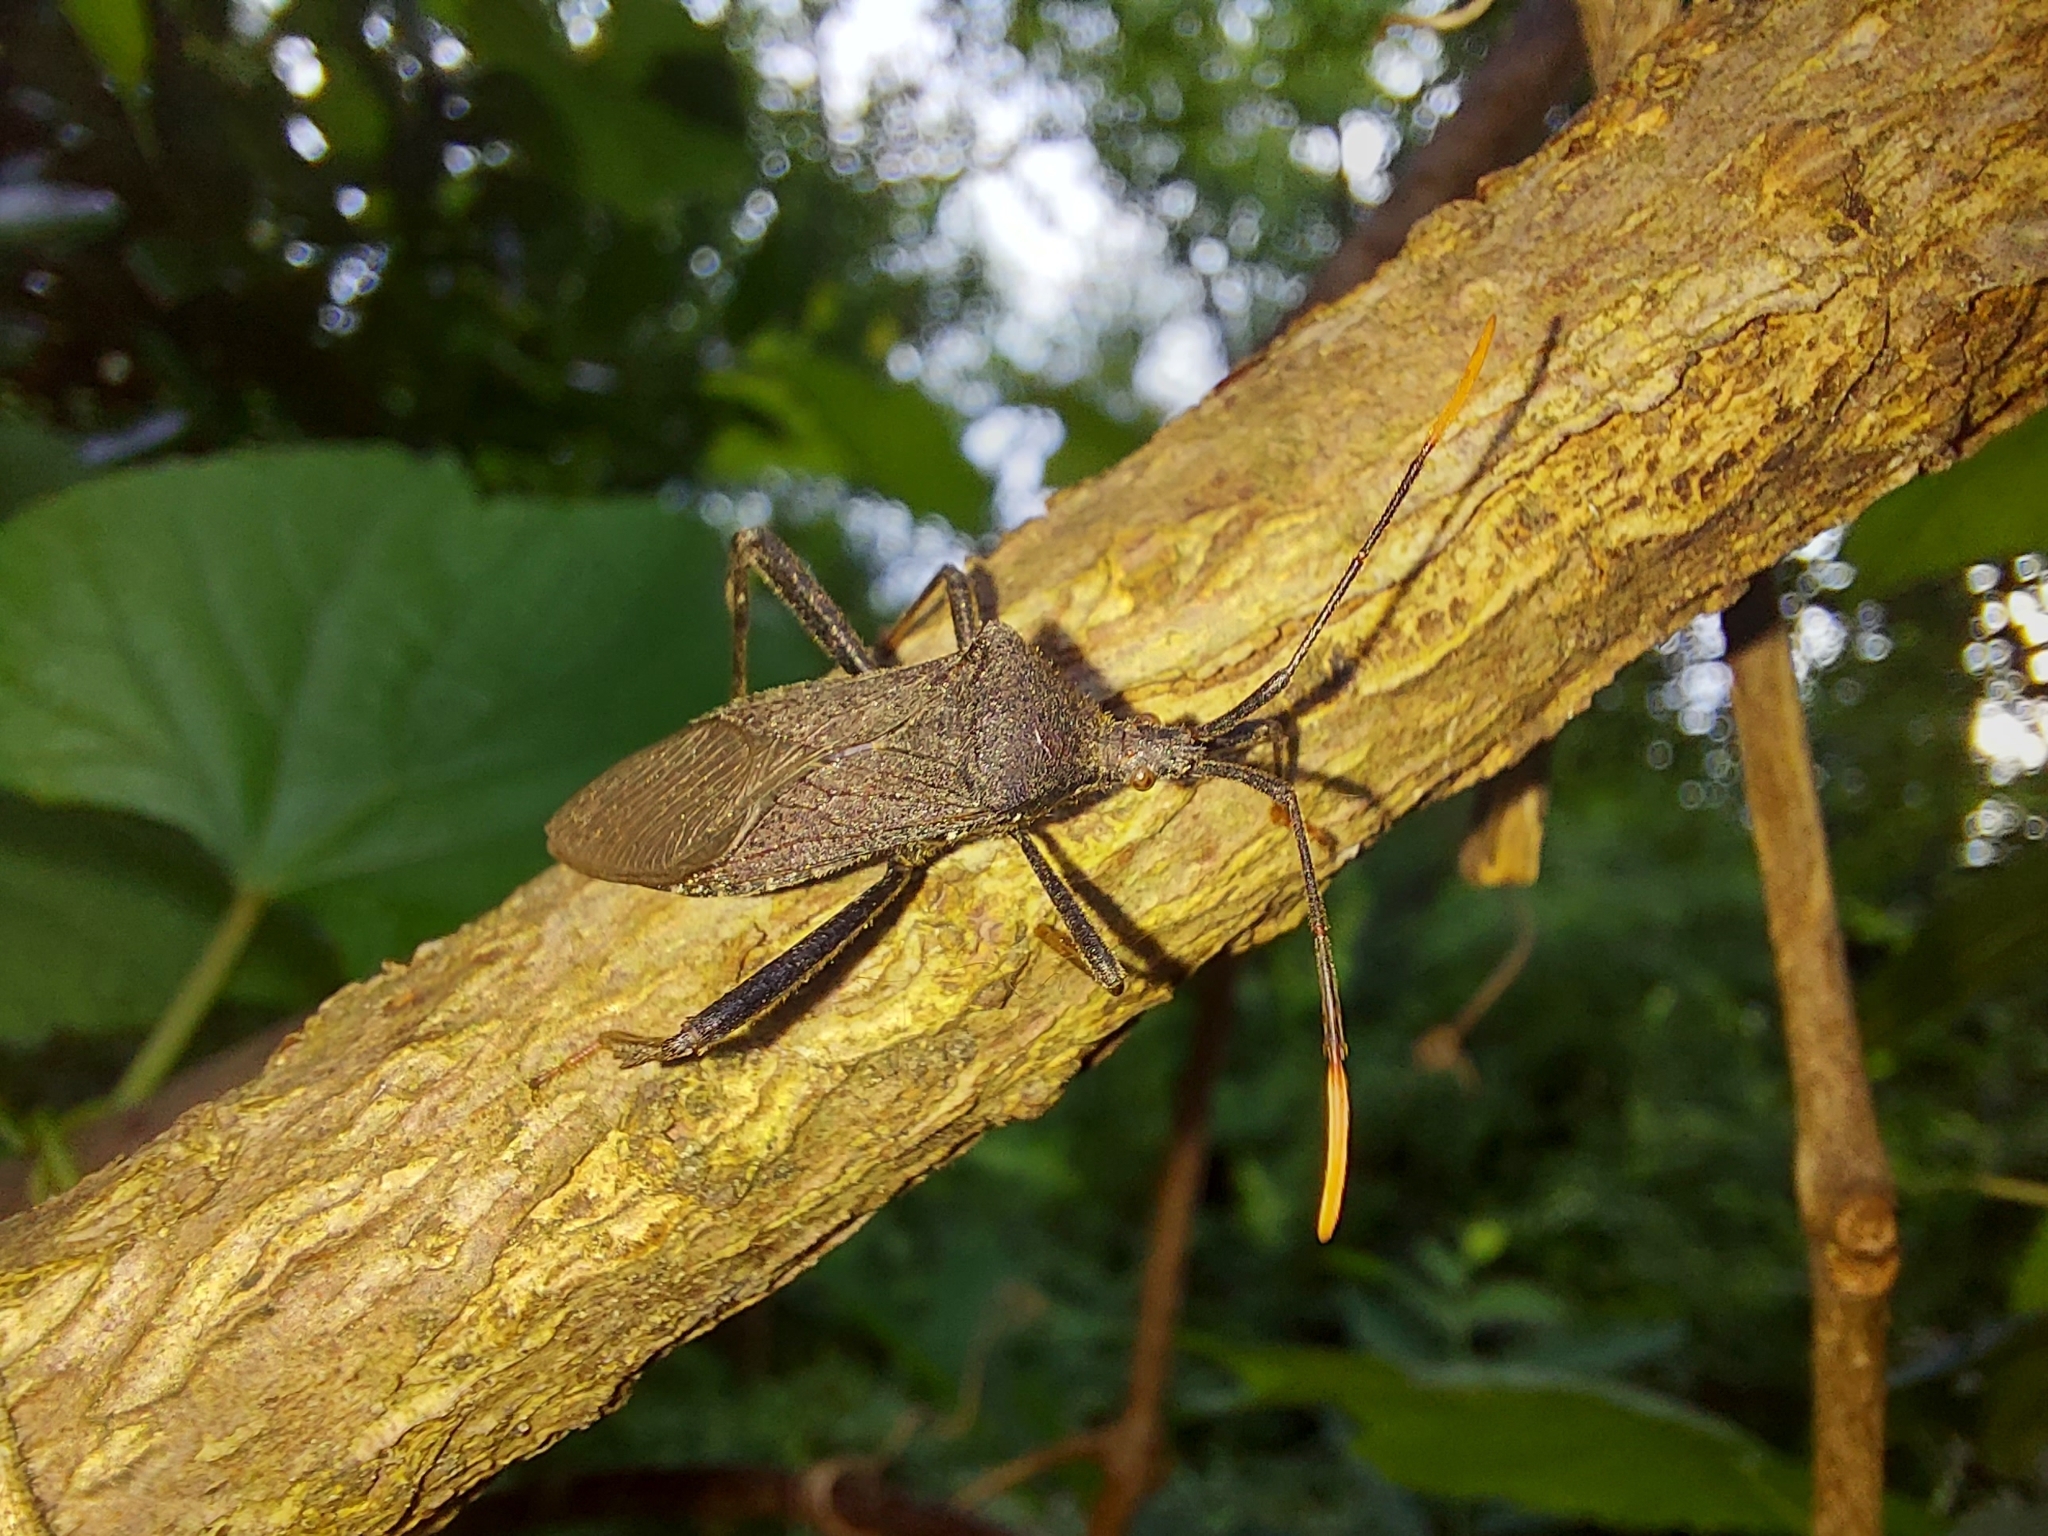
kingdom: Animalia
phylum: Arthropoda
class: Insecta
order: Hemiptera
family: Coreidae
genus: Acanthocephala
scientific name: Acanthocephala terminalis
